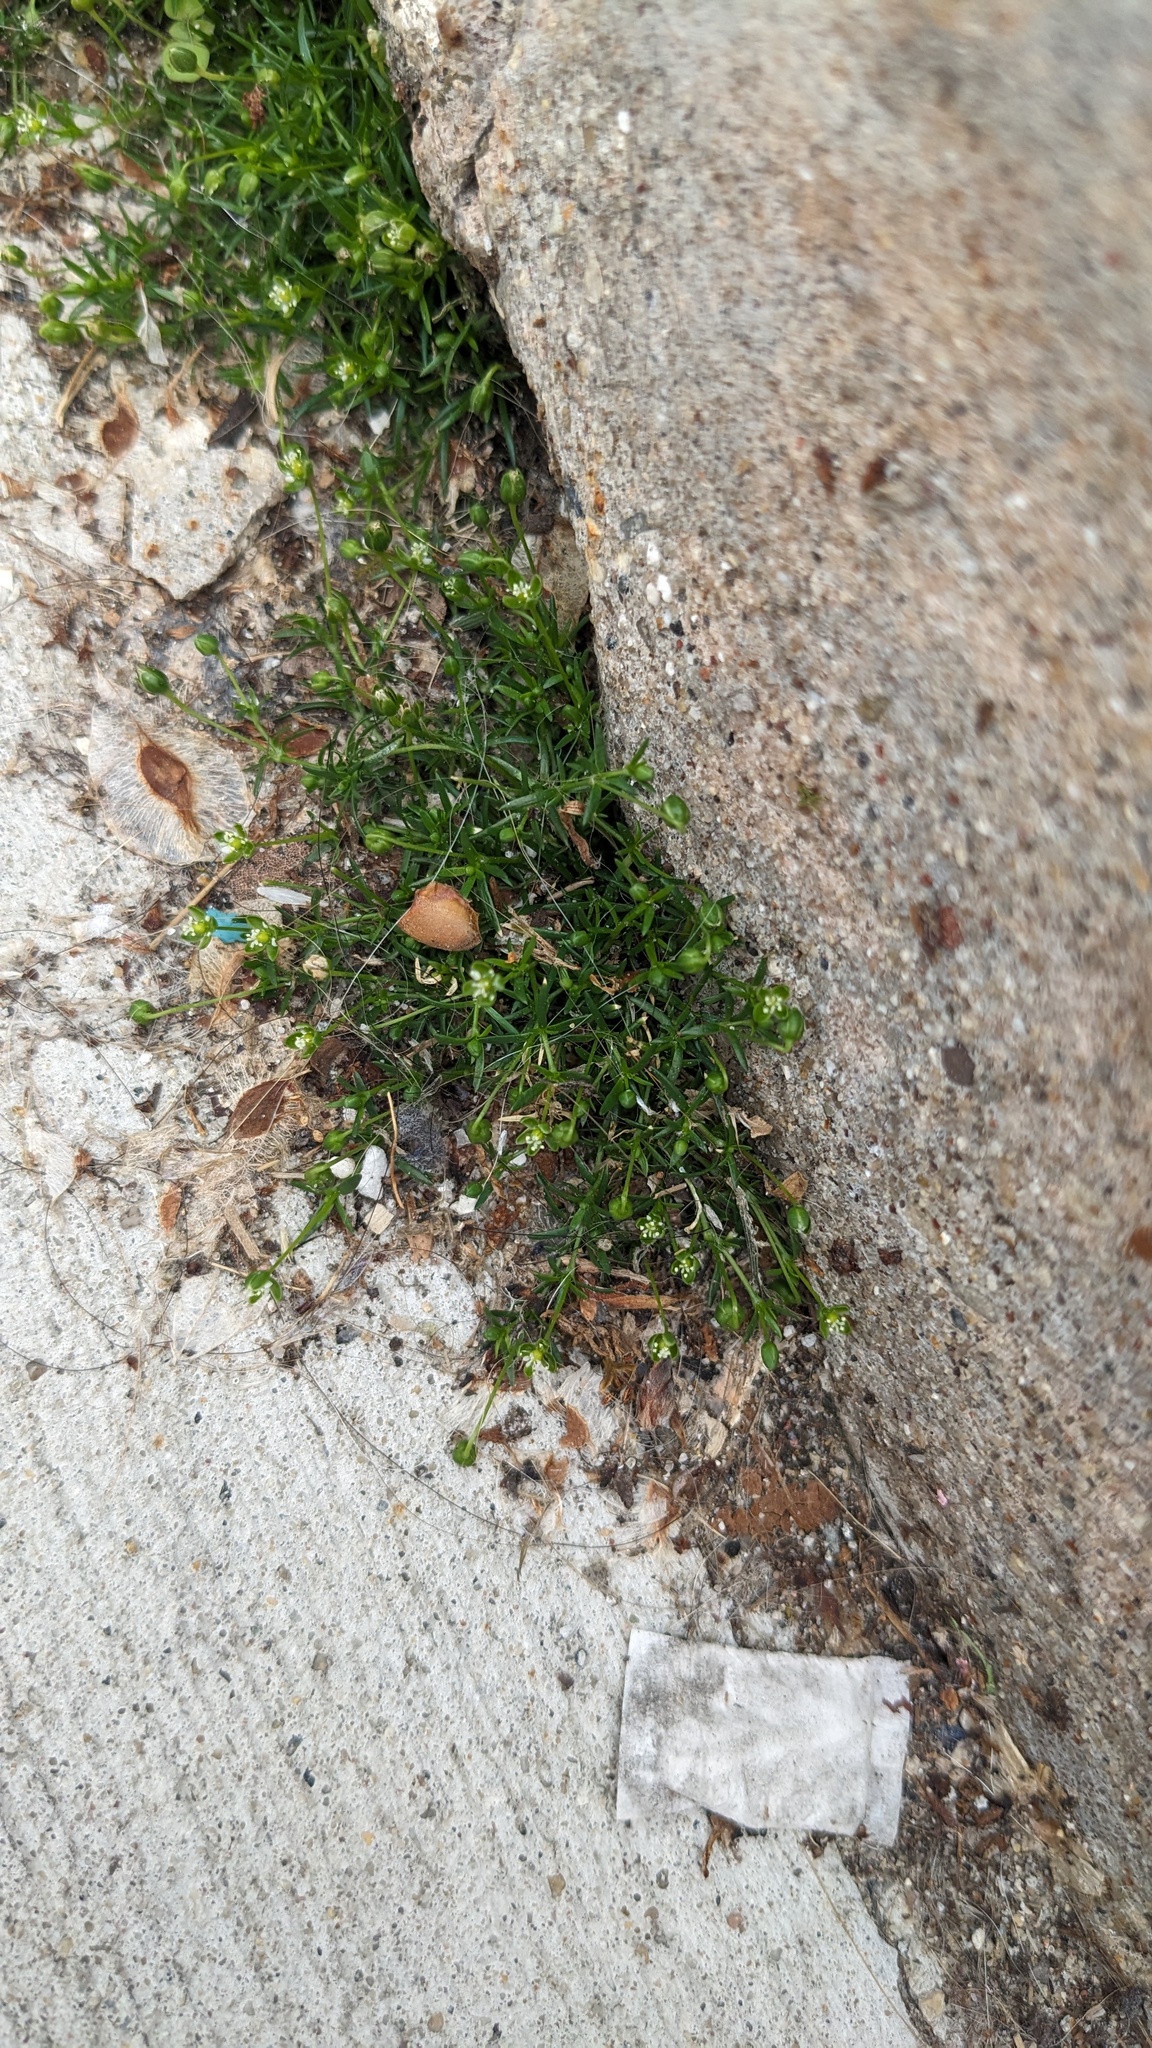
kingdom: Plantae
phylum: Tracheophyta
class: Magnoliopsida
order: Caryophyllales
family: Caryophyllaceae
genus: Sagina
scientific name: Sagina procumbens
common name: Procumbent pearlwort
